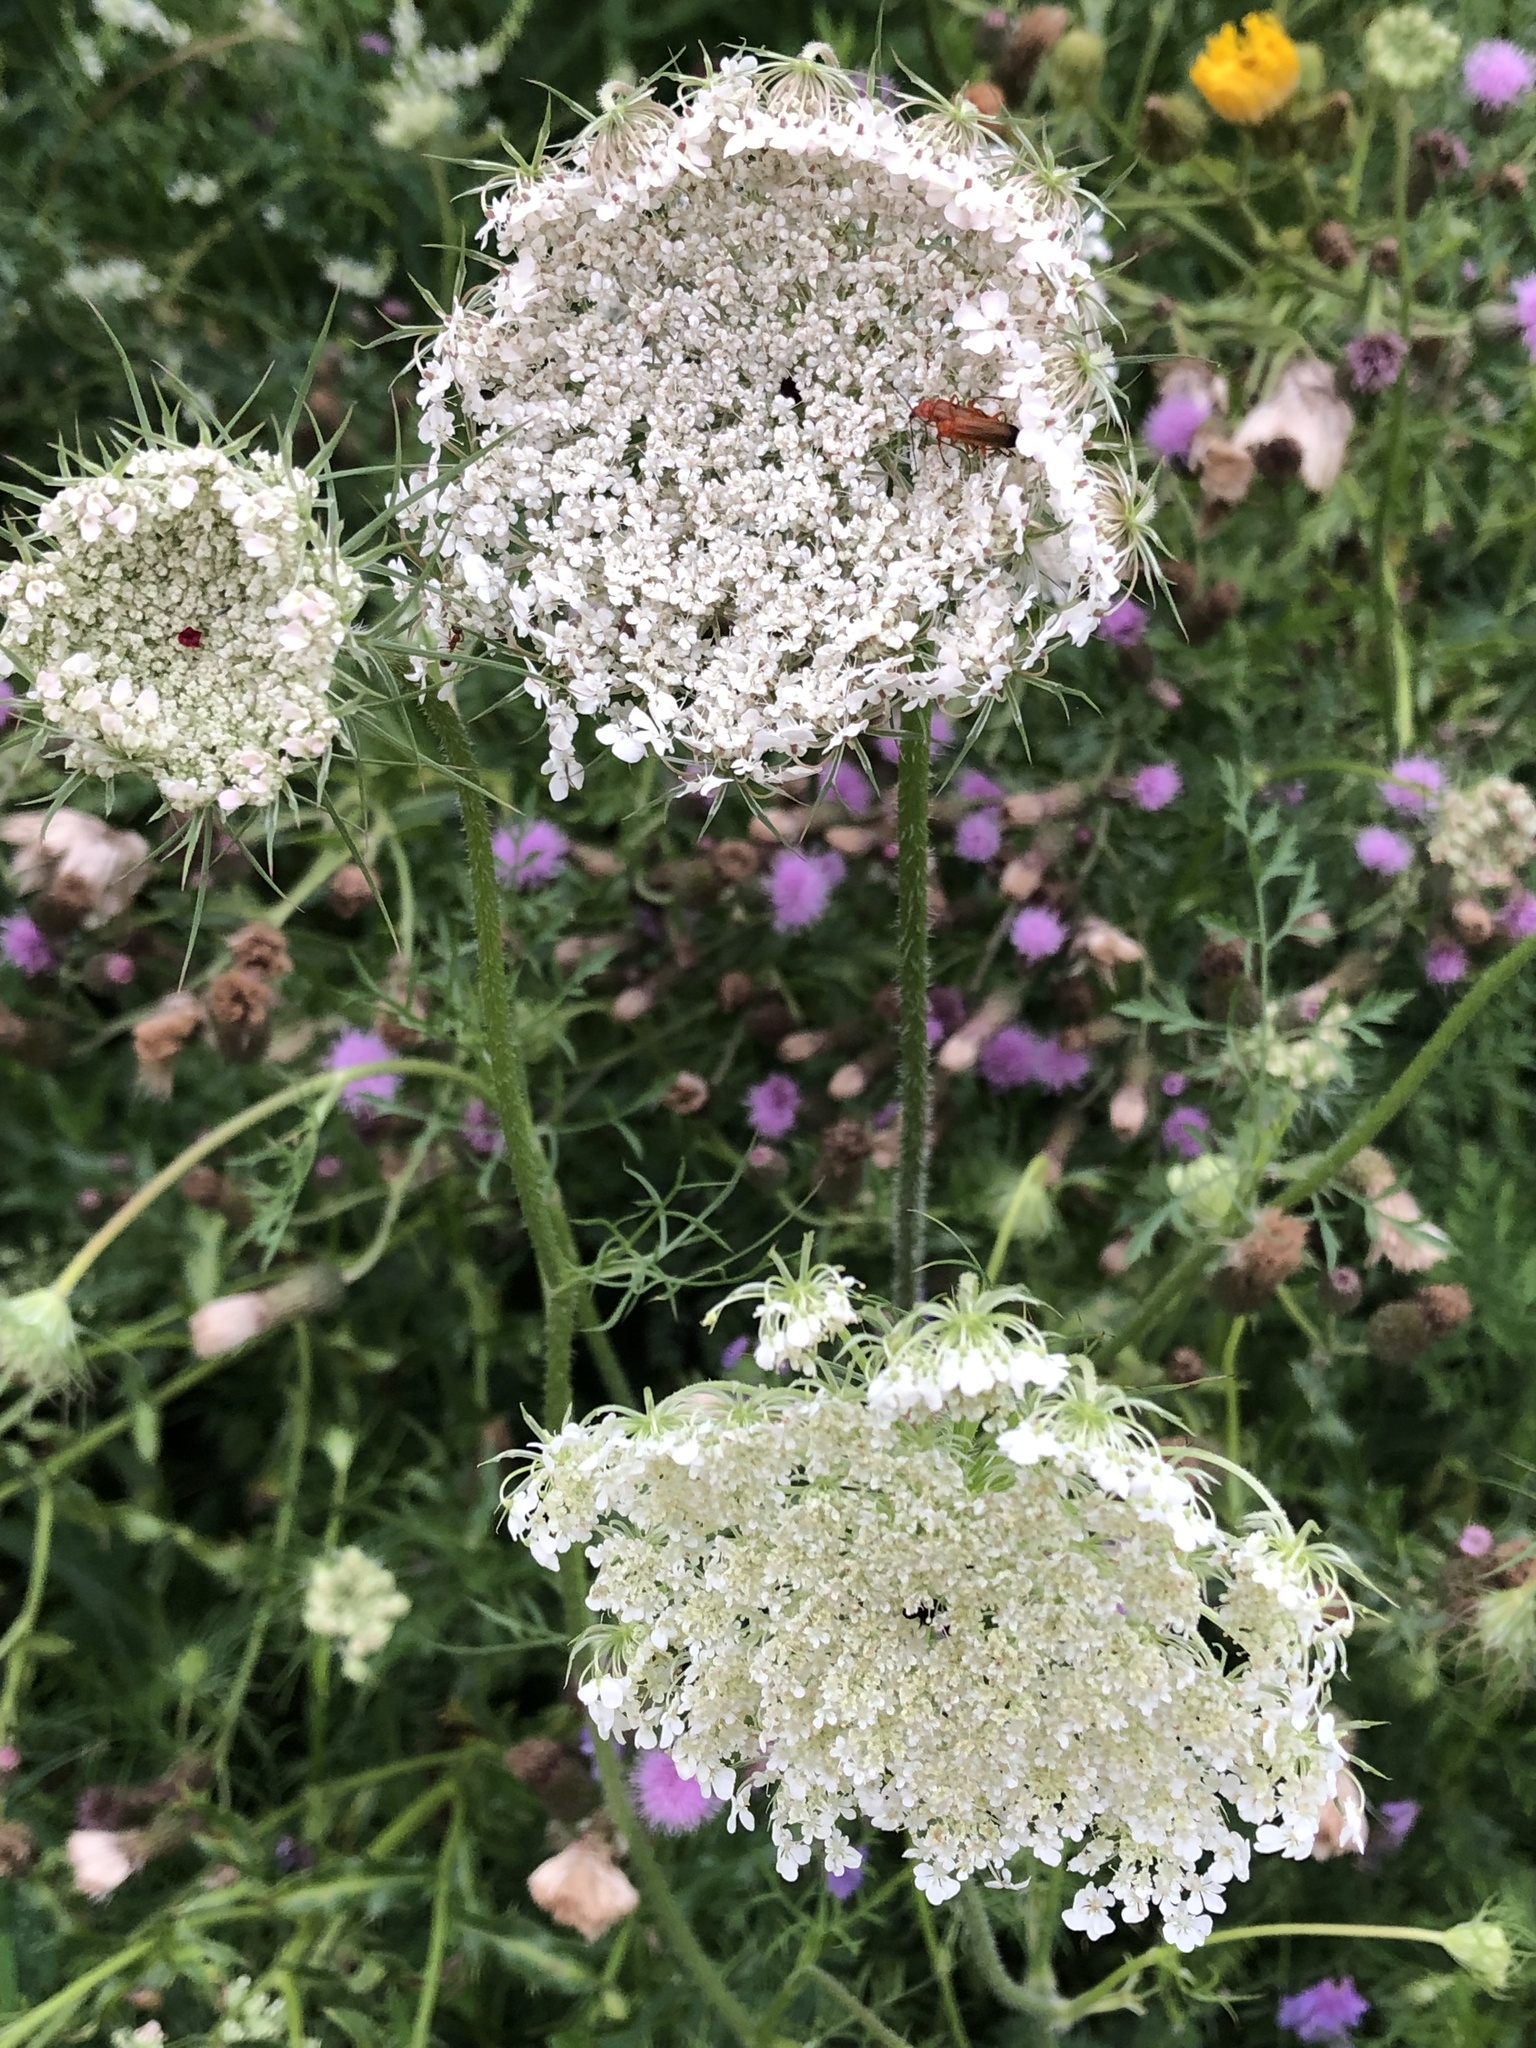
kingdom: Plantae
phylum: Tracheophyta
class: Magnoliopsida
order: Apiales
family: Apiaceae
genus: Daucus
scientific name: Daucus carota
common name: Wild carrot
